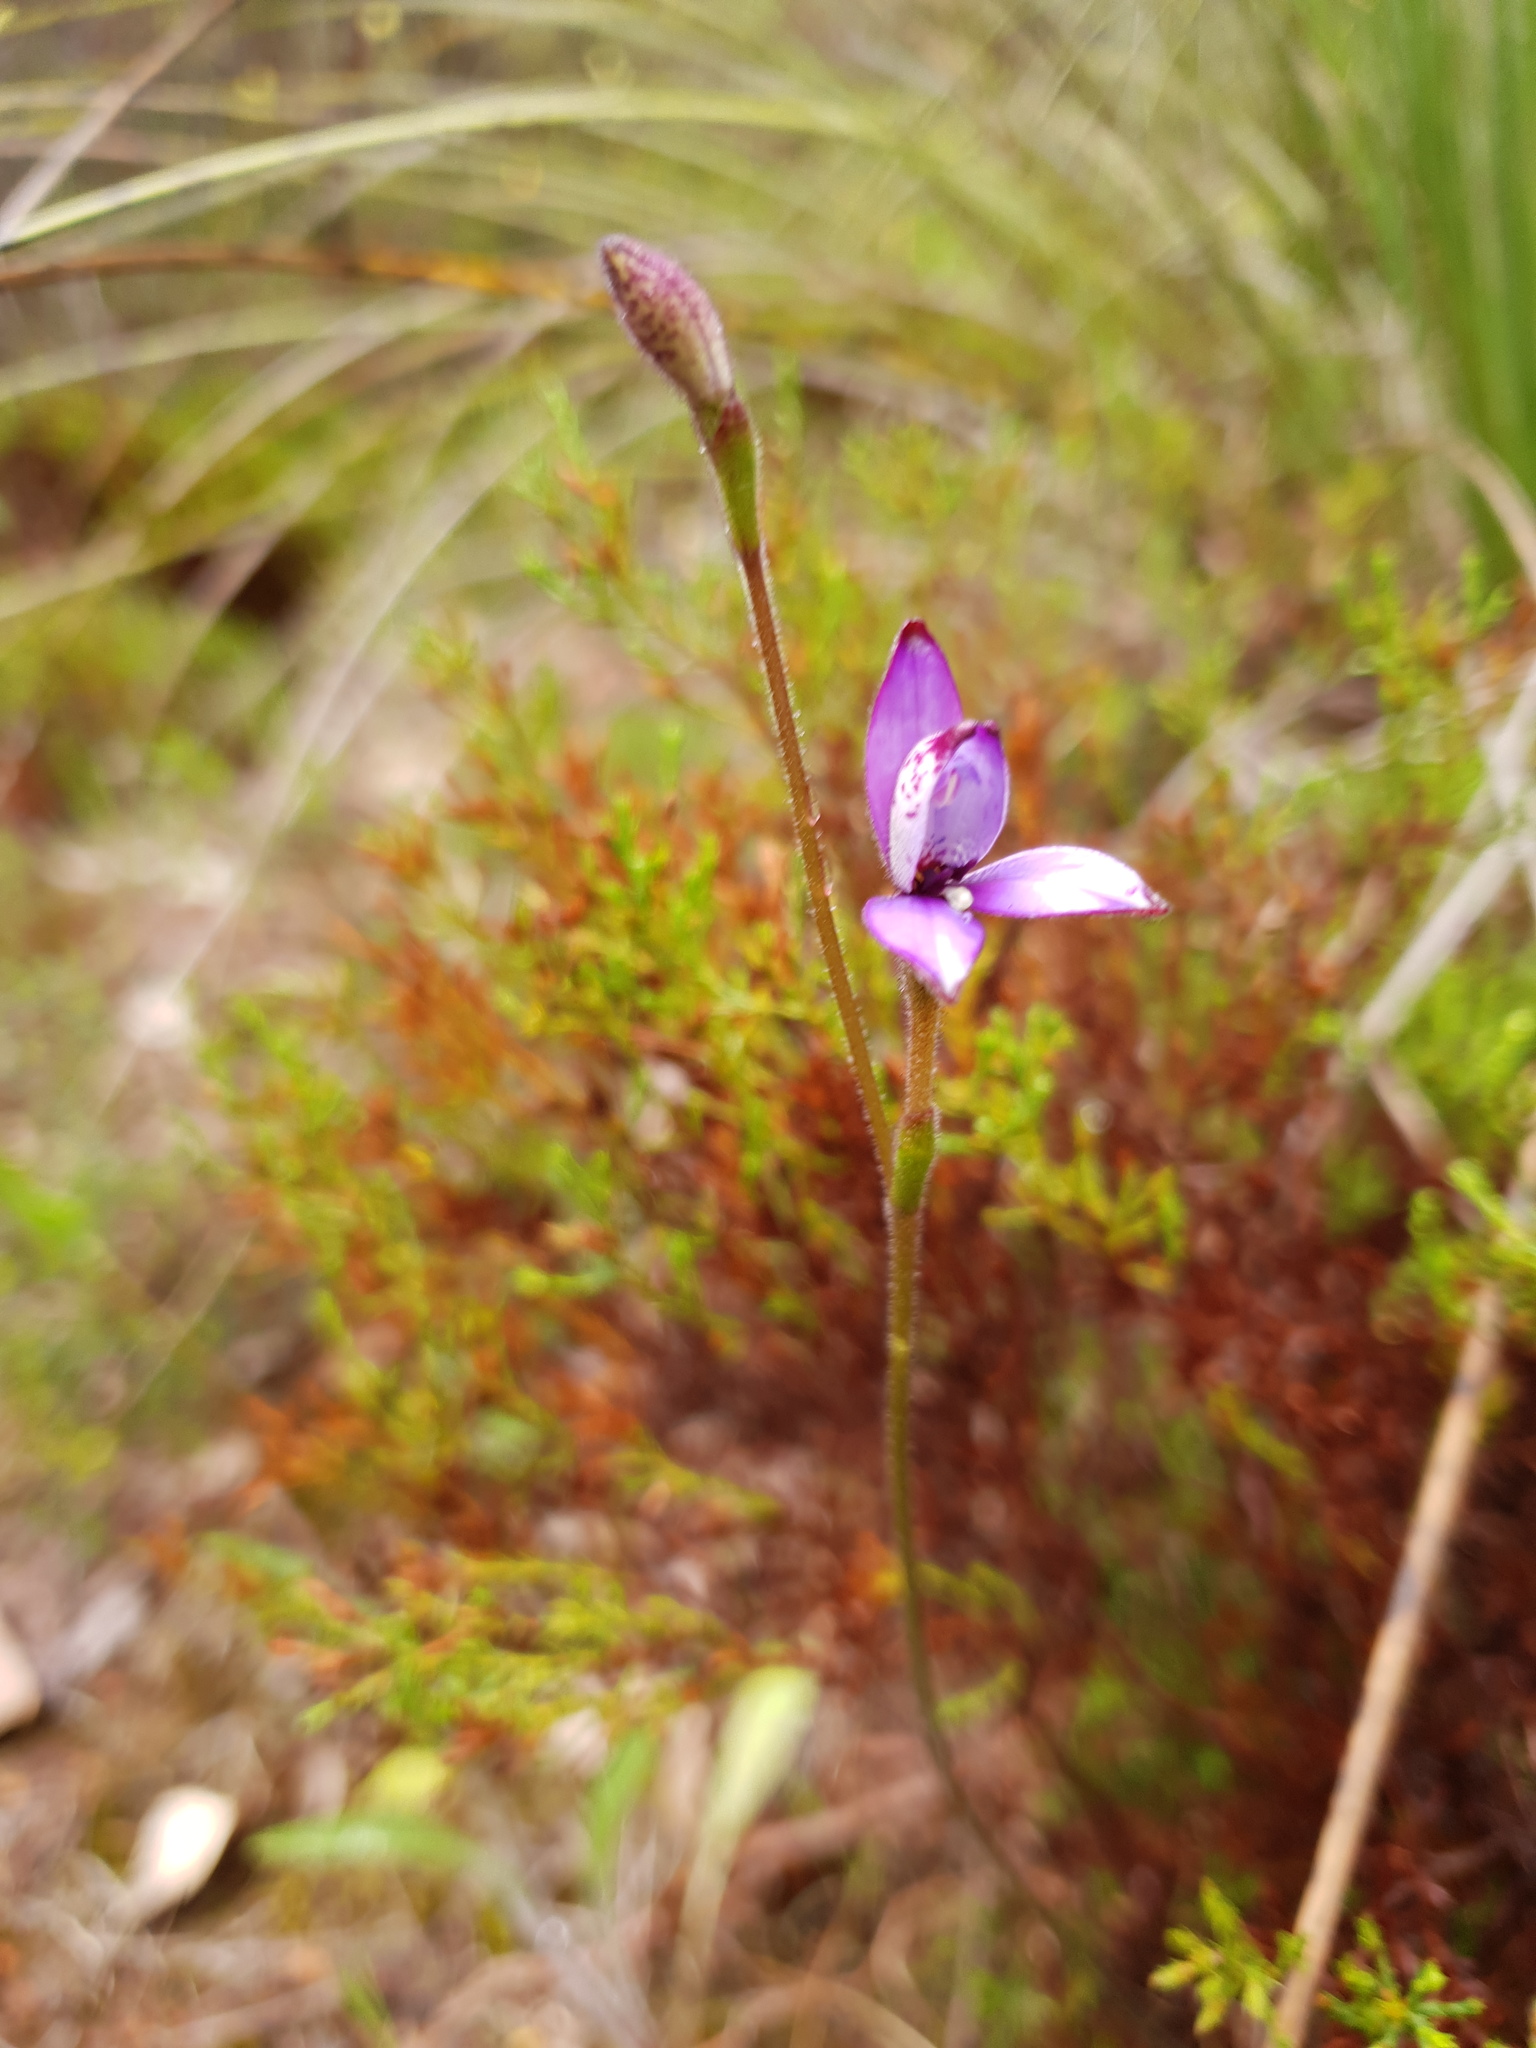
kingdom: Plantae
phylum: Tracheophyta
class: Liliopsida
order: Asparagales
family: Orchidaceae
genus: Caladenia
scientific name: Caladenia brunonis
